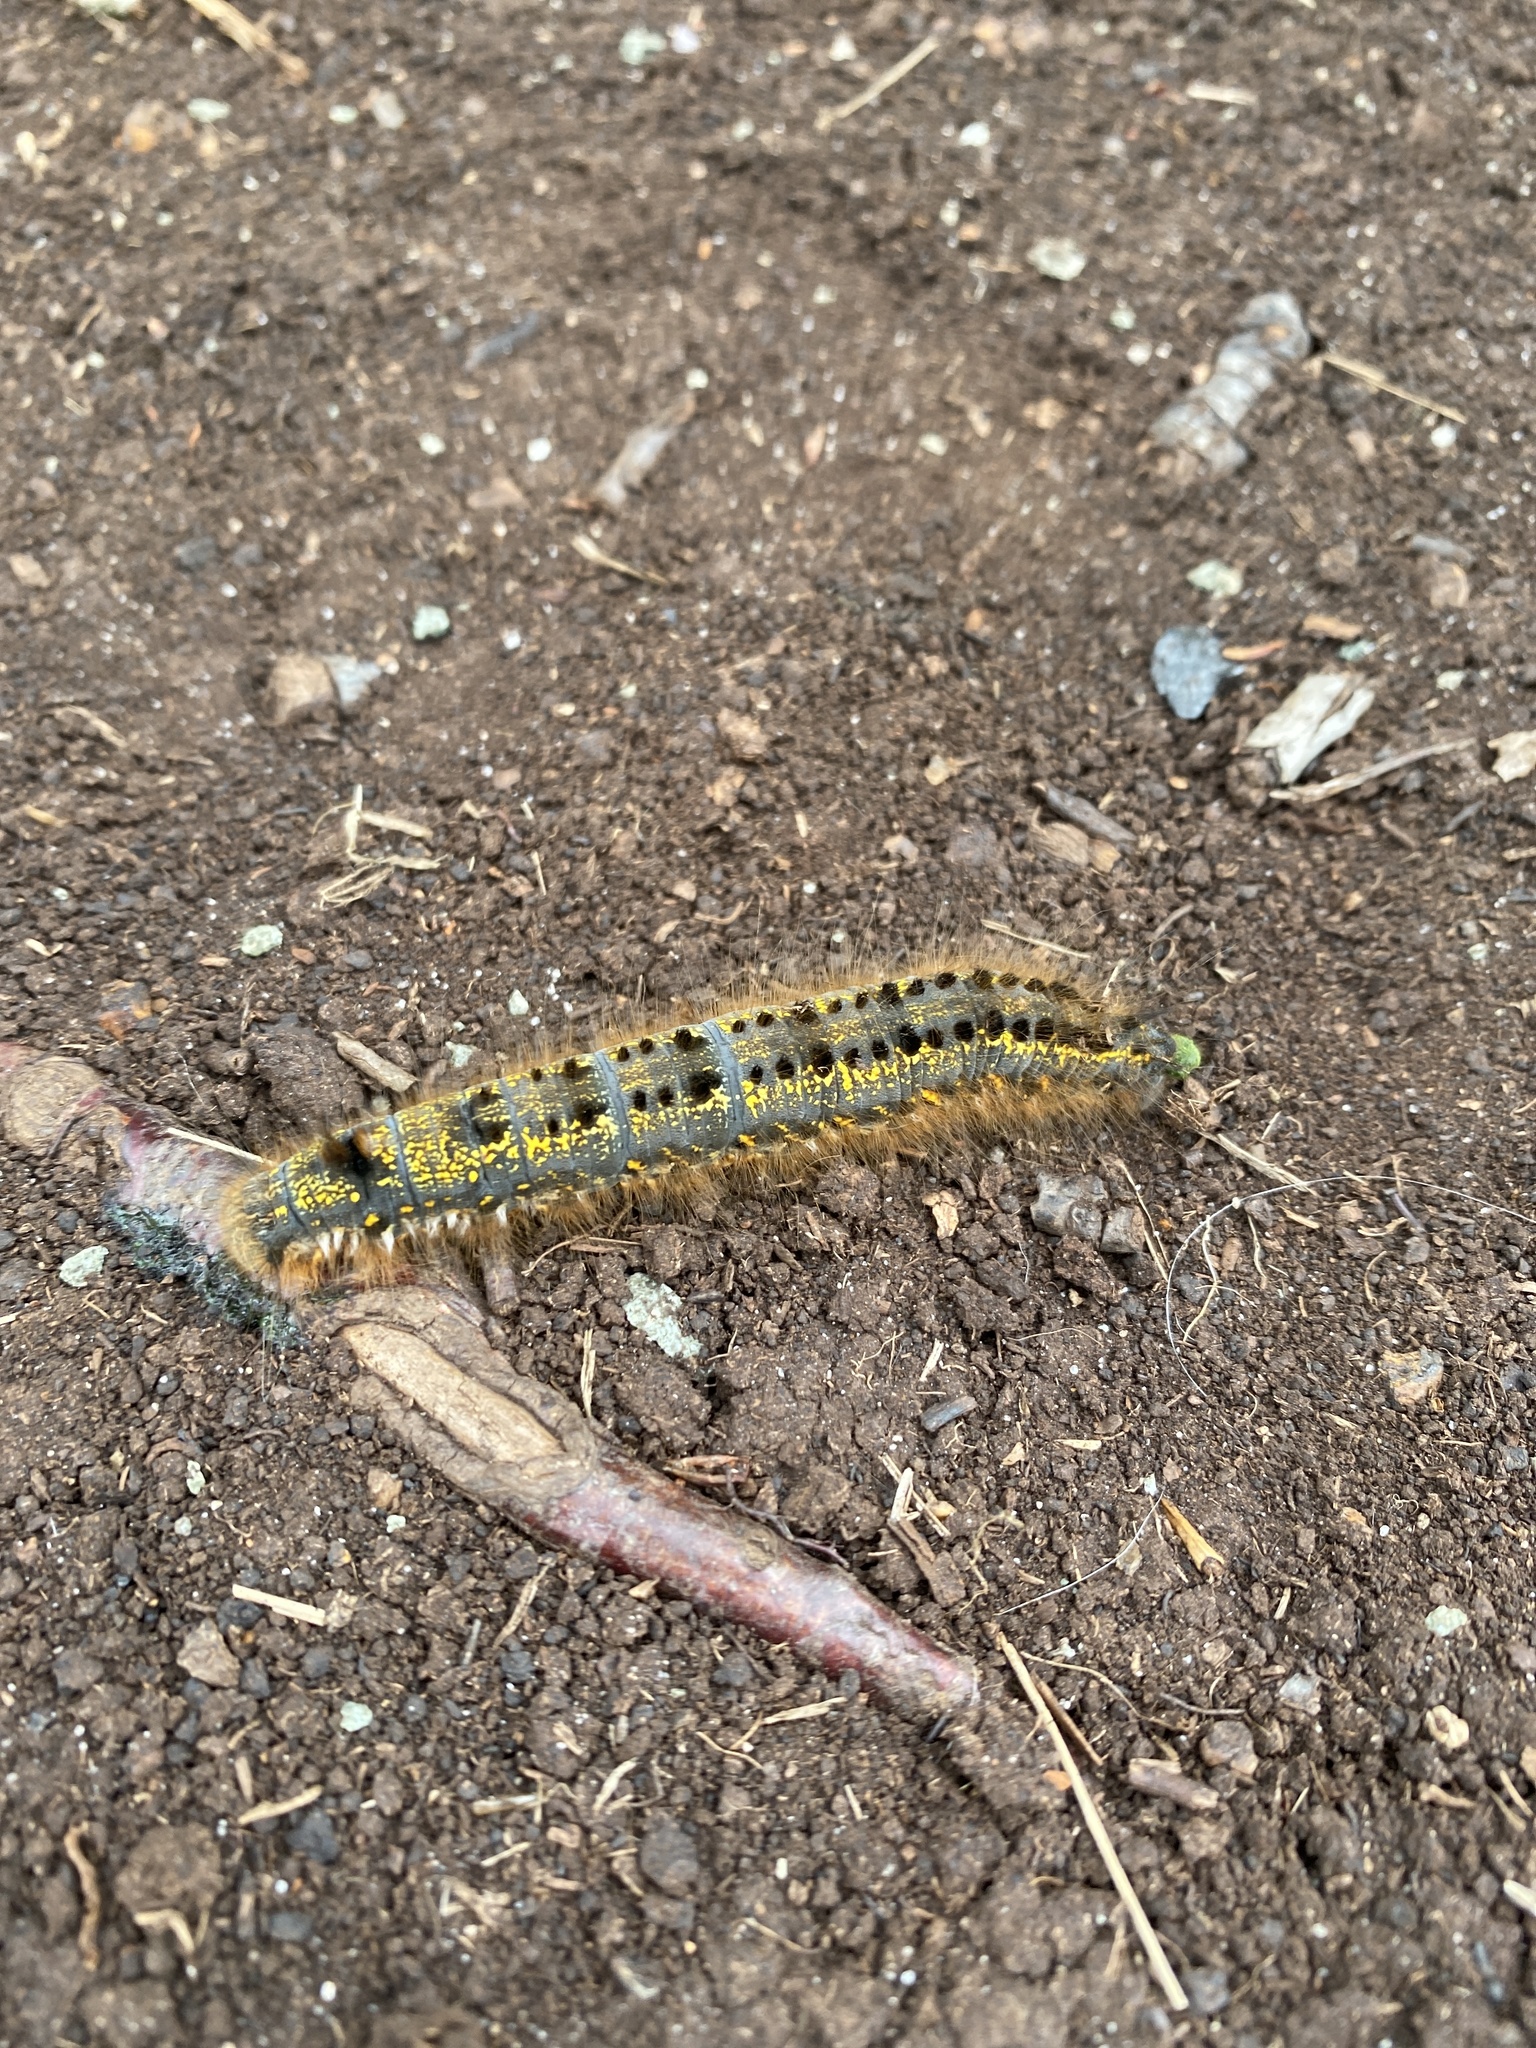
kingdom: Animalia
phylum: Arthropoda
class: Insecta
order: Lepidoptera
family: Lasiocampidae
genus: Euthrix
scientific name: Euthrix potatoria
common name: Drinker
